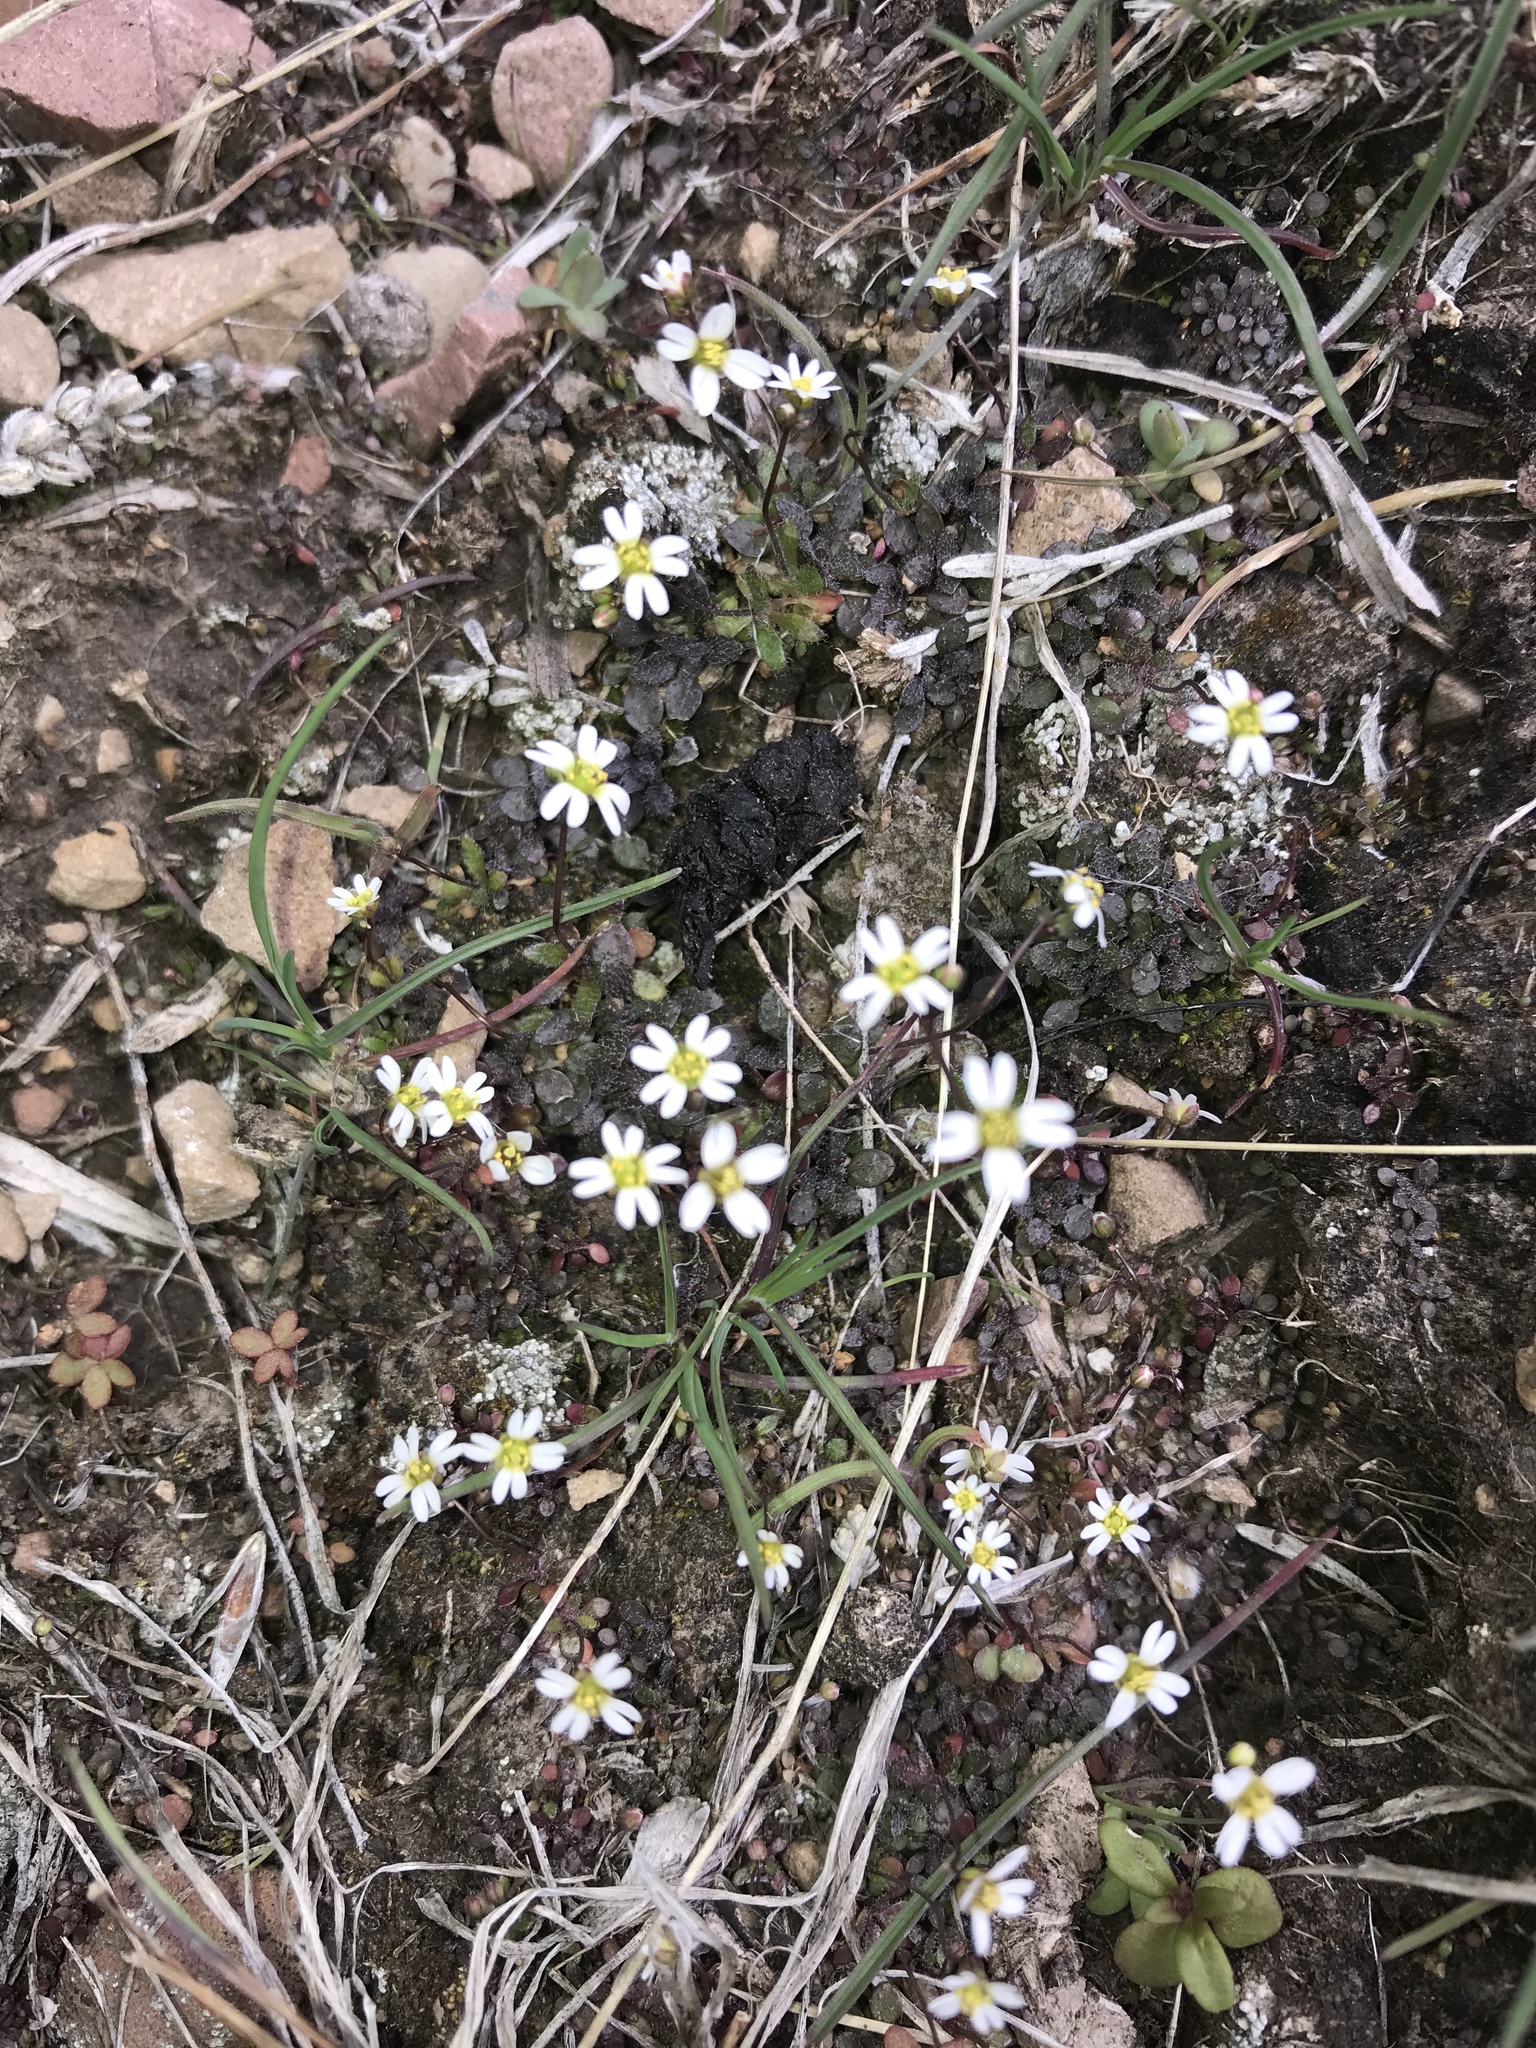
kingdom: Plantae
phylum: Tracheophyta
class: Magnoliopsida
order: Brassicales
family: Brassicaceae
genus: Draba
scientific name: Draba verna
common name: Spring draba
